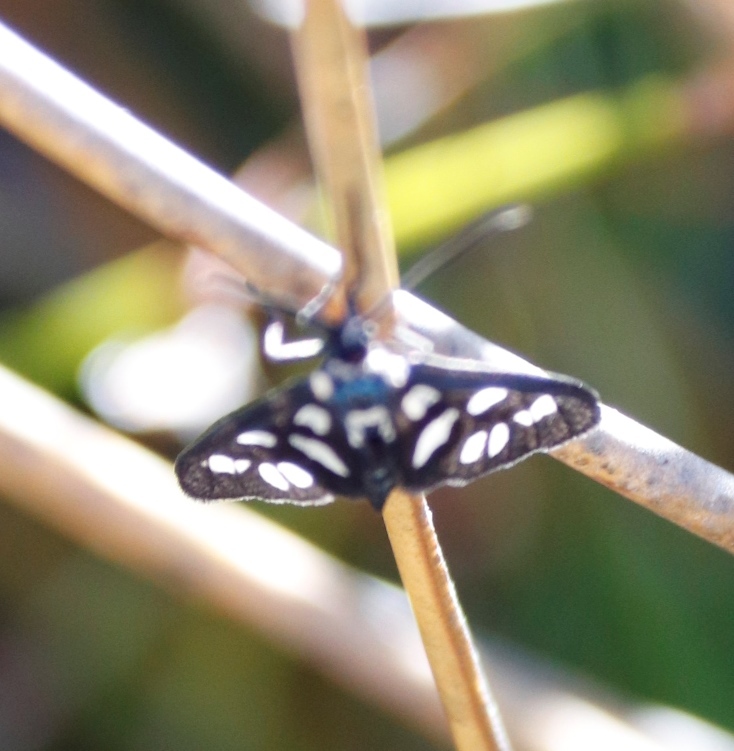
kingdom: Animalia
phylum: Arthropoda
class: Insecta
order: Lepidoptera
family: Erebidae
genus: Amata
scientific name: Amata karroana
